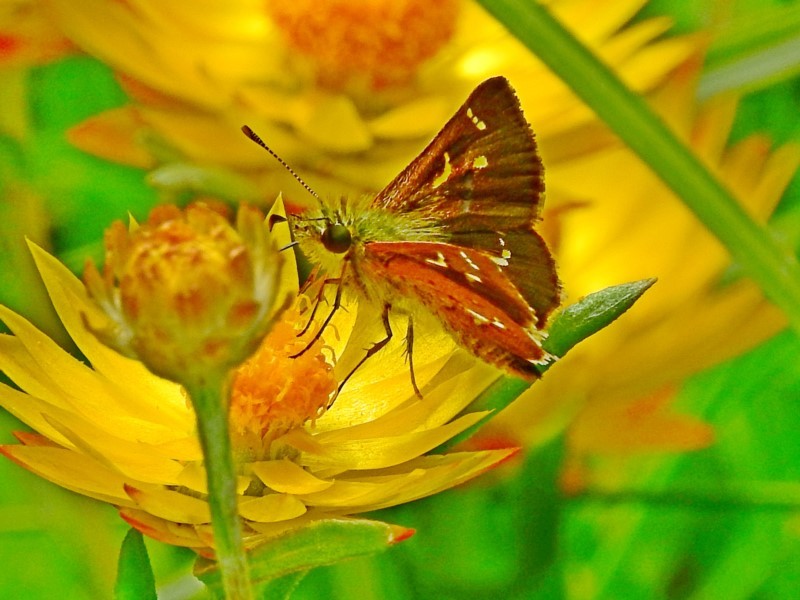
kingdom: Animalia
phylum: Arthropoda
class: Insecta
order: Lepidoptera
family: Hesperiidae
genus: Dispar
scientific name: Dispar compacta
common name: Barred skipper
